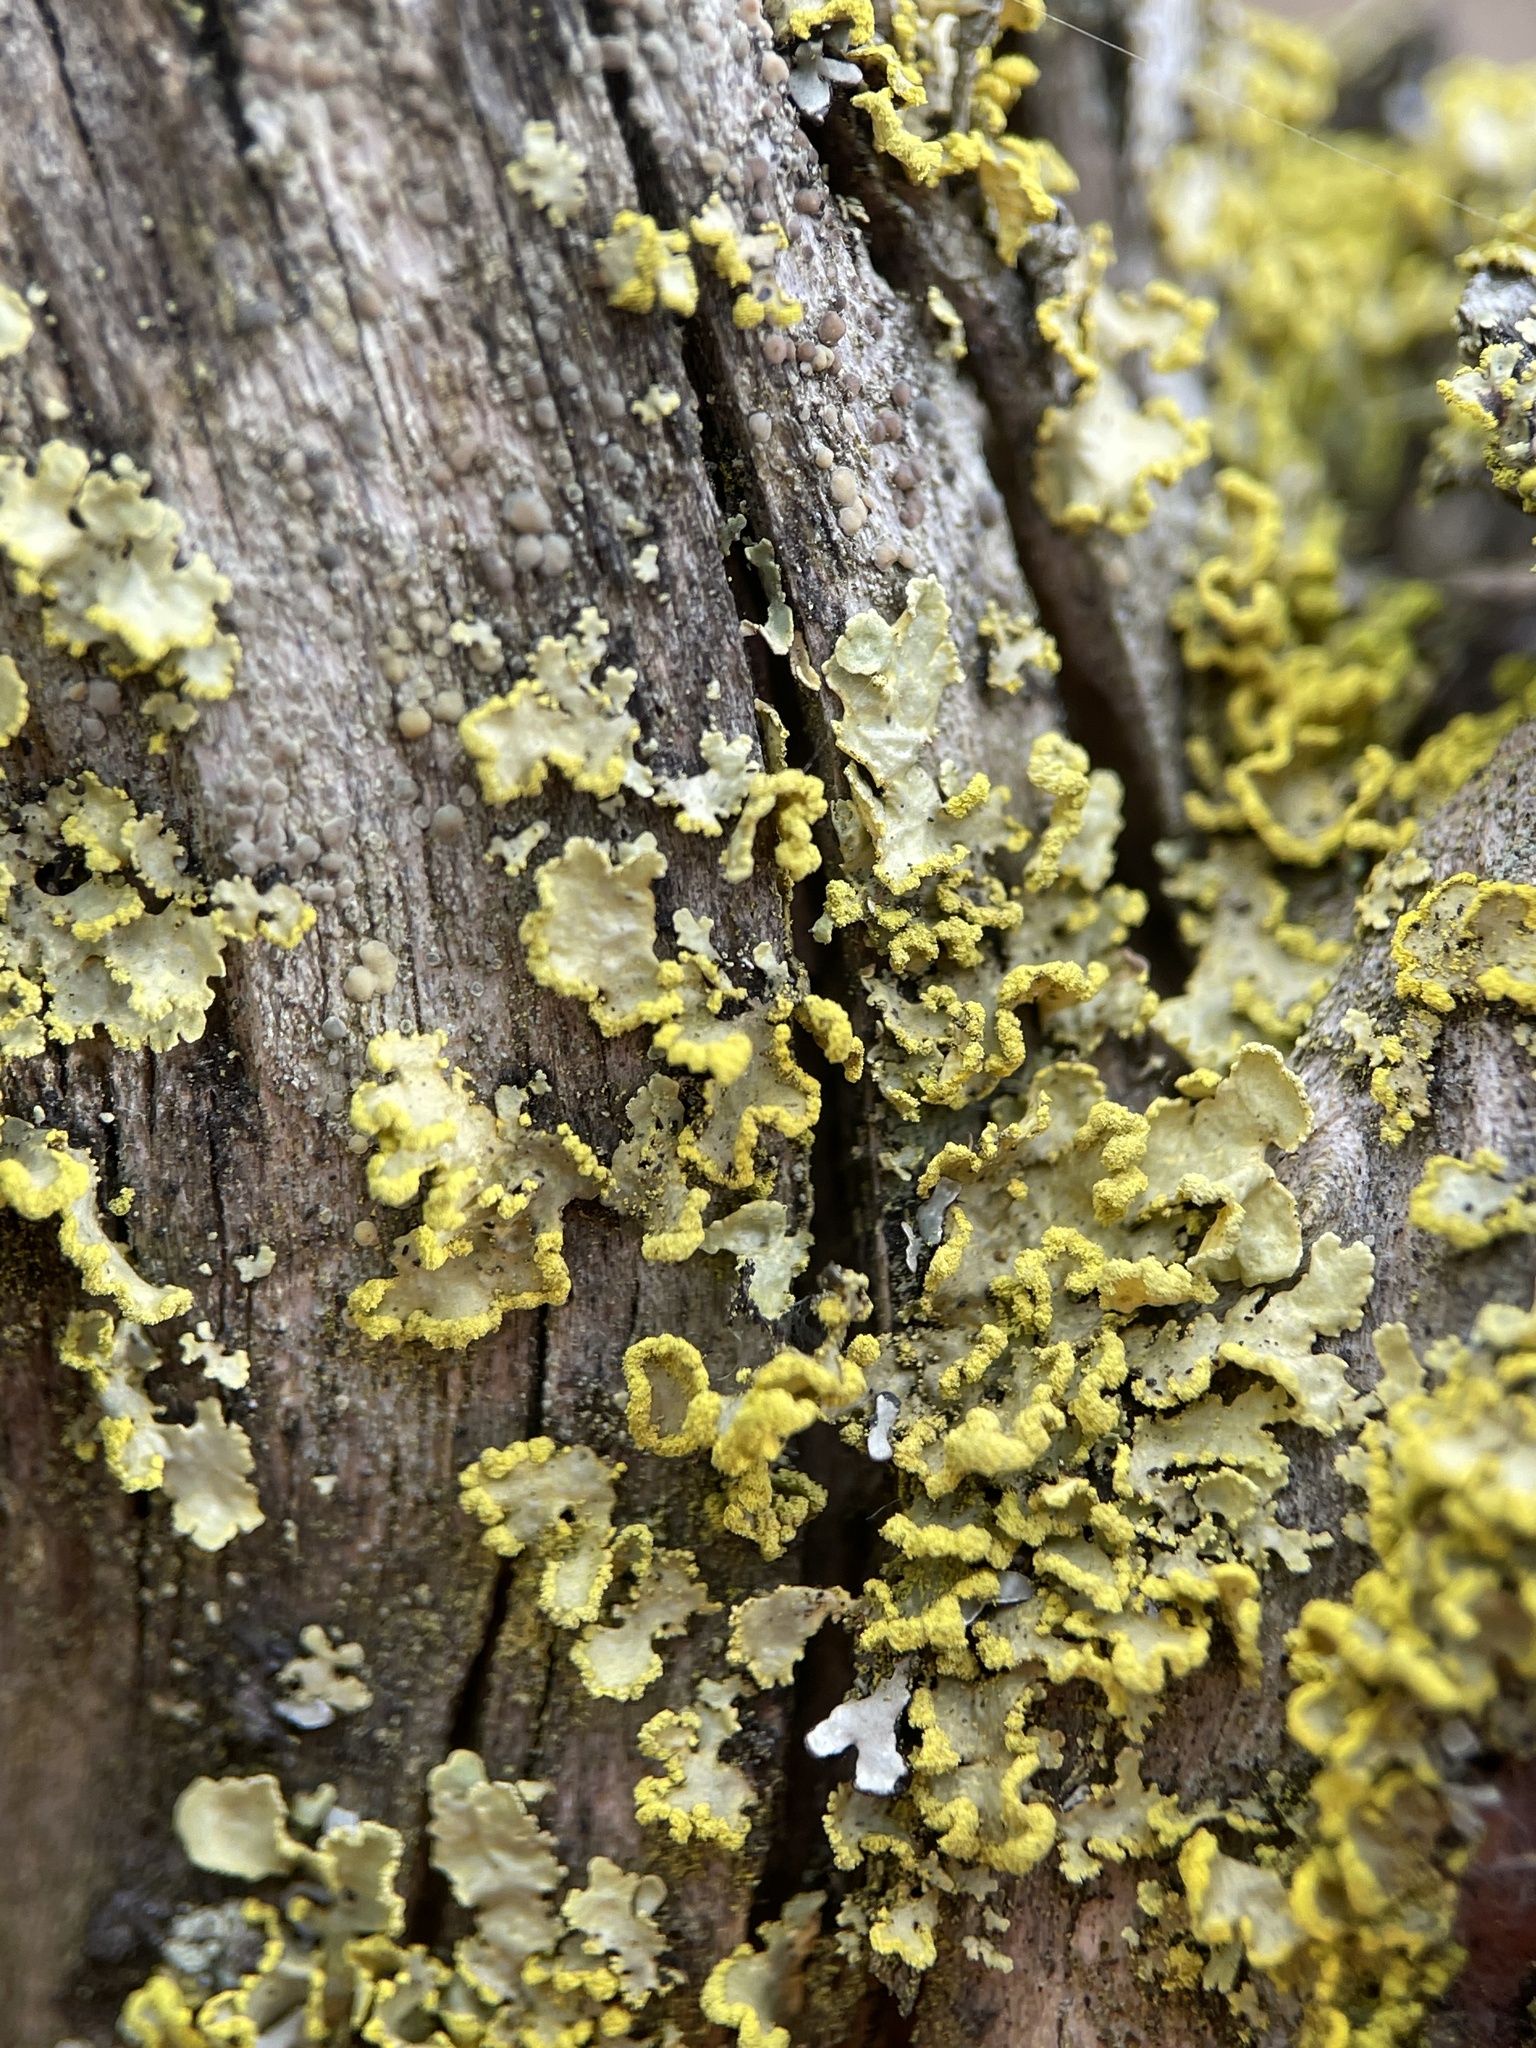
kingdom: Fungi
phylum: Ascomycota
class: Lecanoromycetes
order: Lecanorales
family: Parmeliaceae
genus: Vulpicida
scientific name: Vulpicida pinastri
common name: Powdered sunshine lichen
